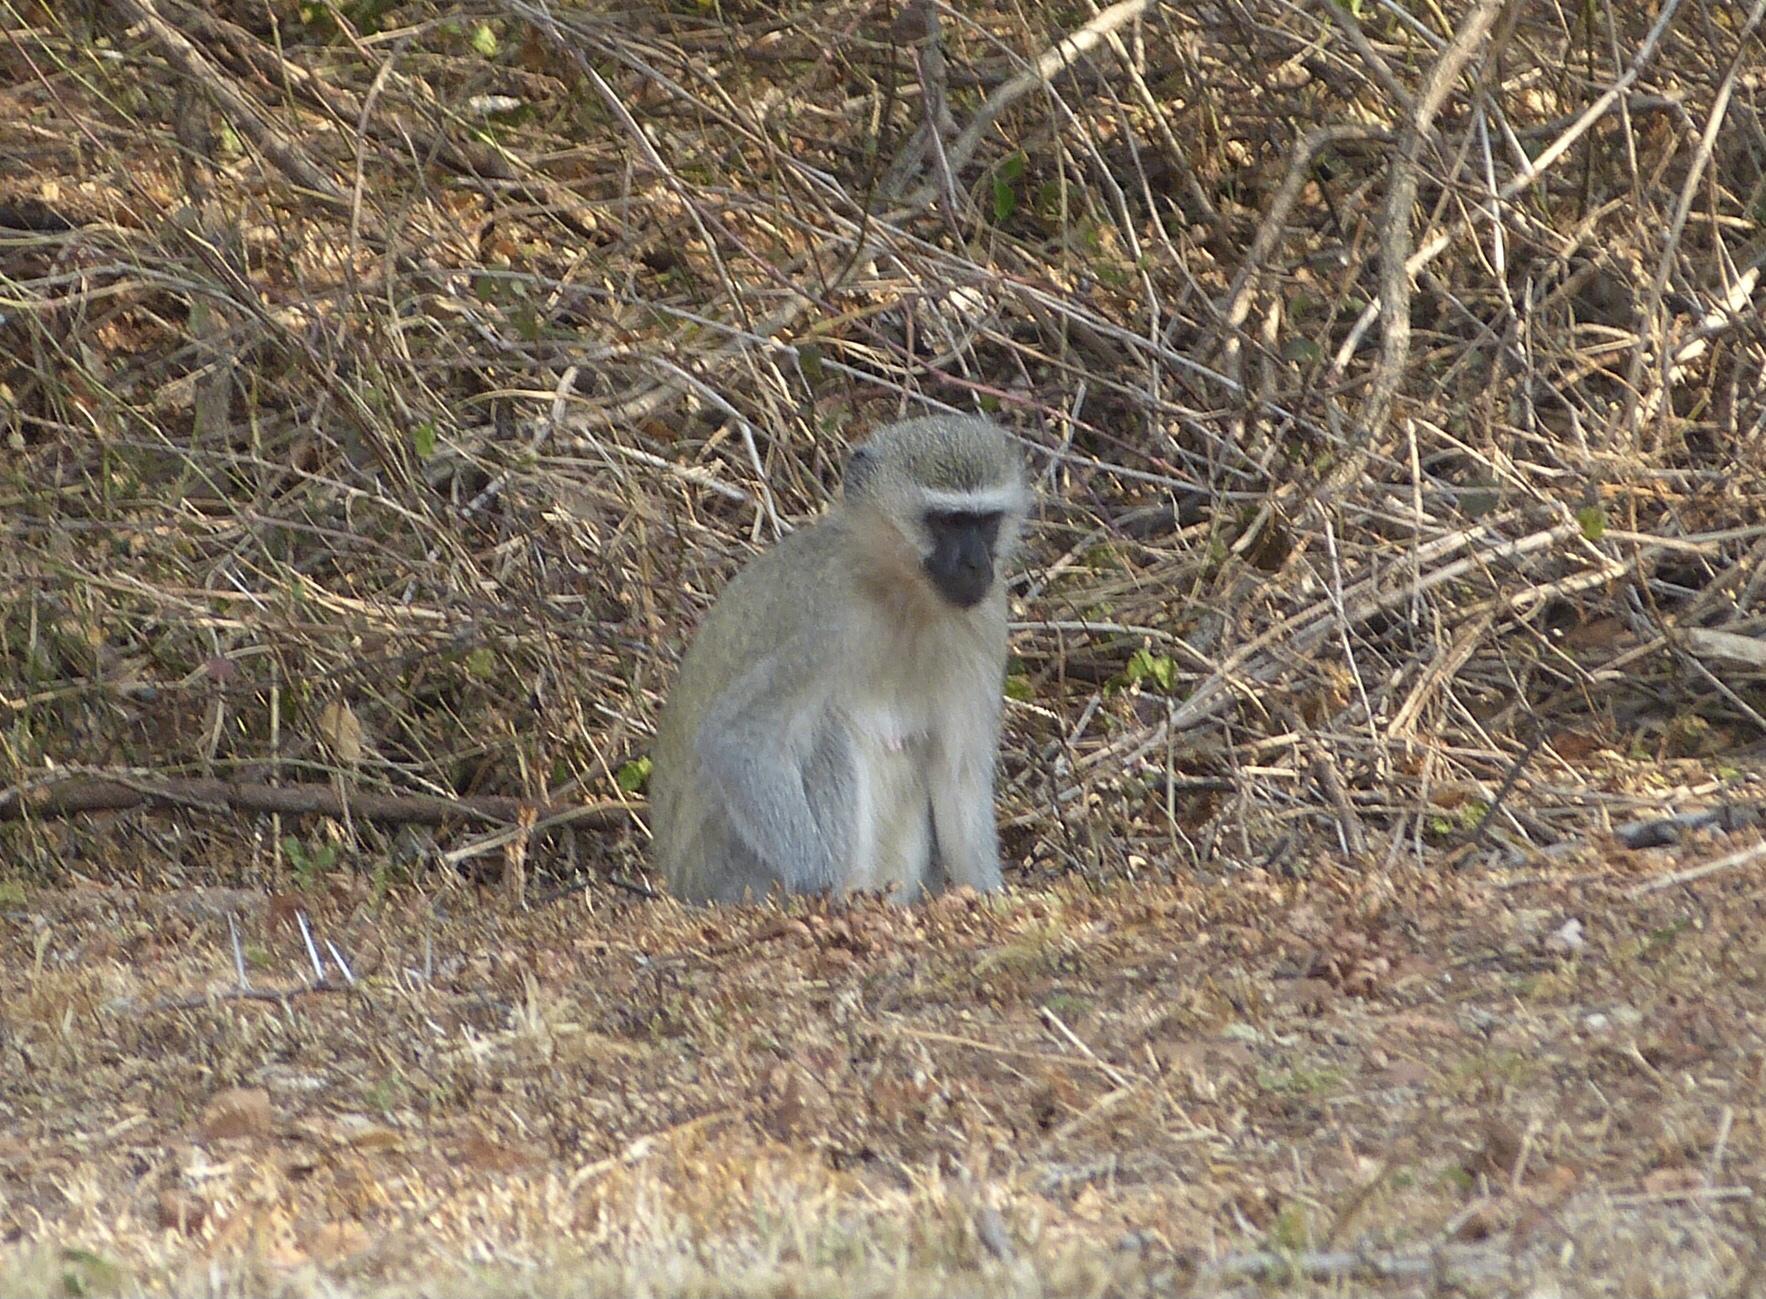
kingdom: Animalia
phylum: Chordata
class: Mammalia
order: Primates
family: Cercopithecidae
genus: Chlorocebus
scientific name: Chlorocebus pygerythrus
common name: Vervet monkey
